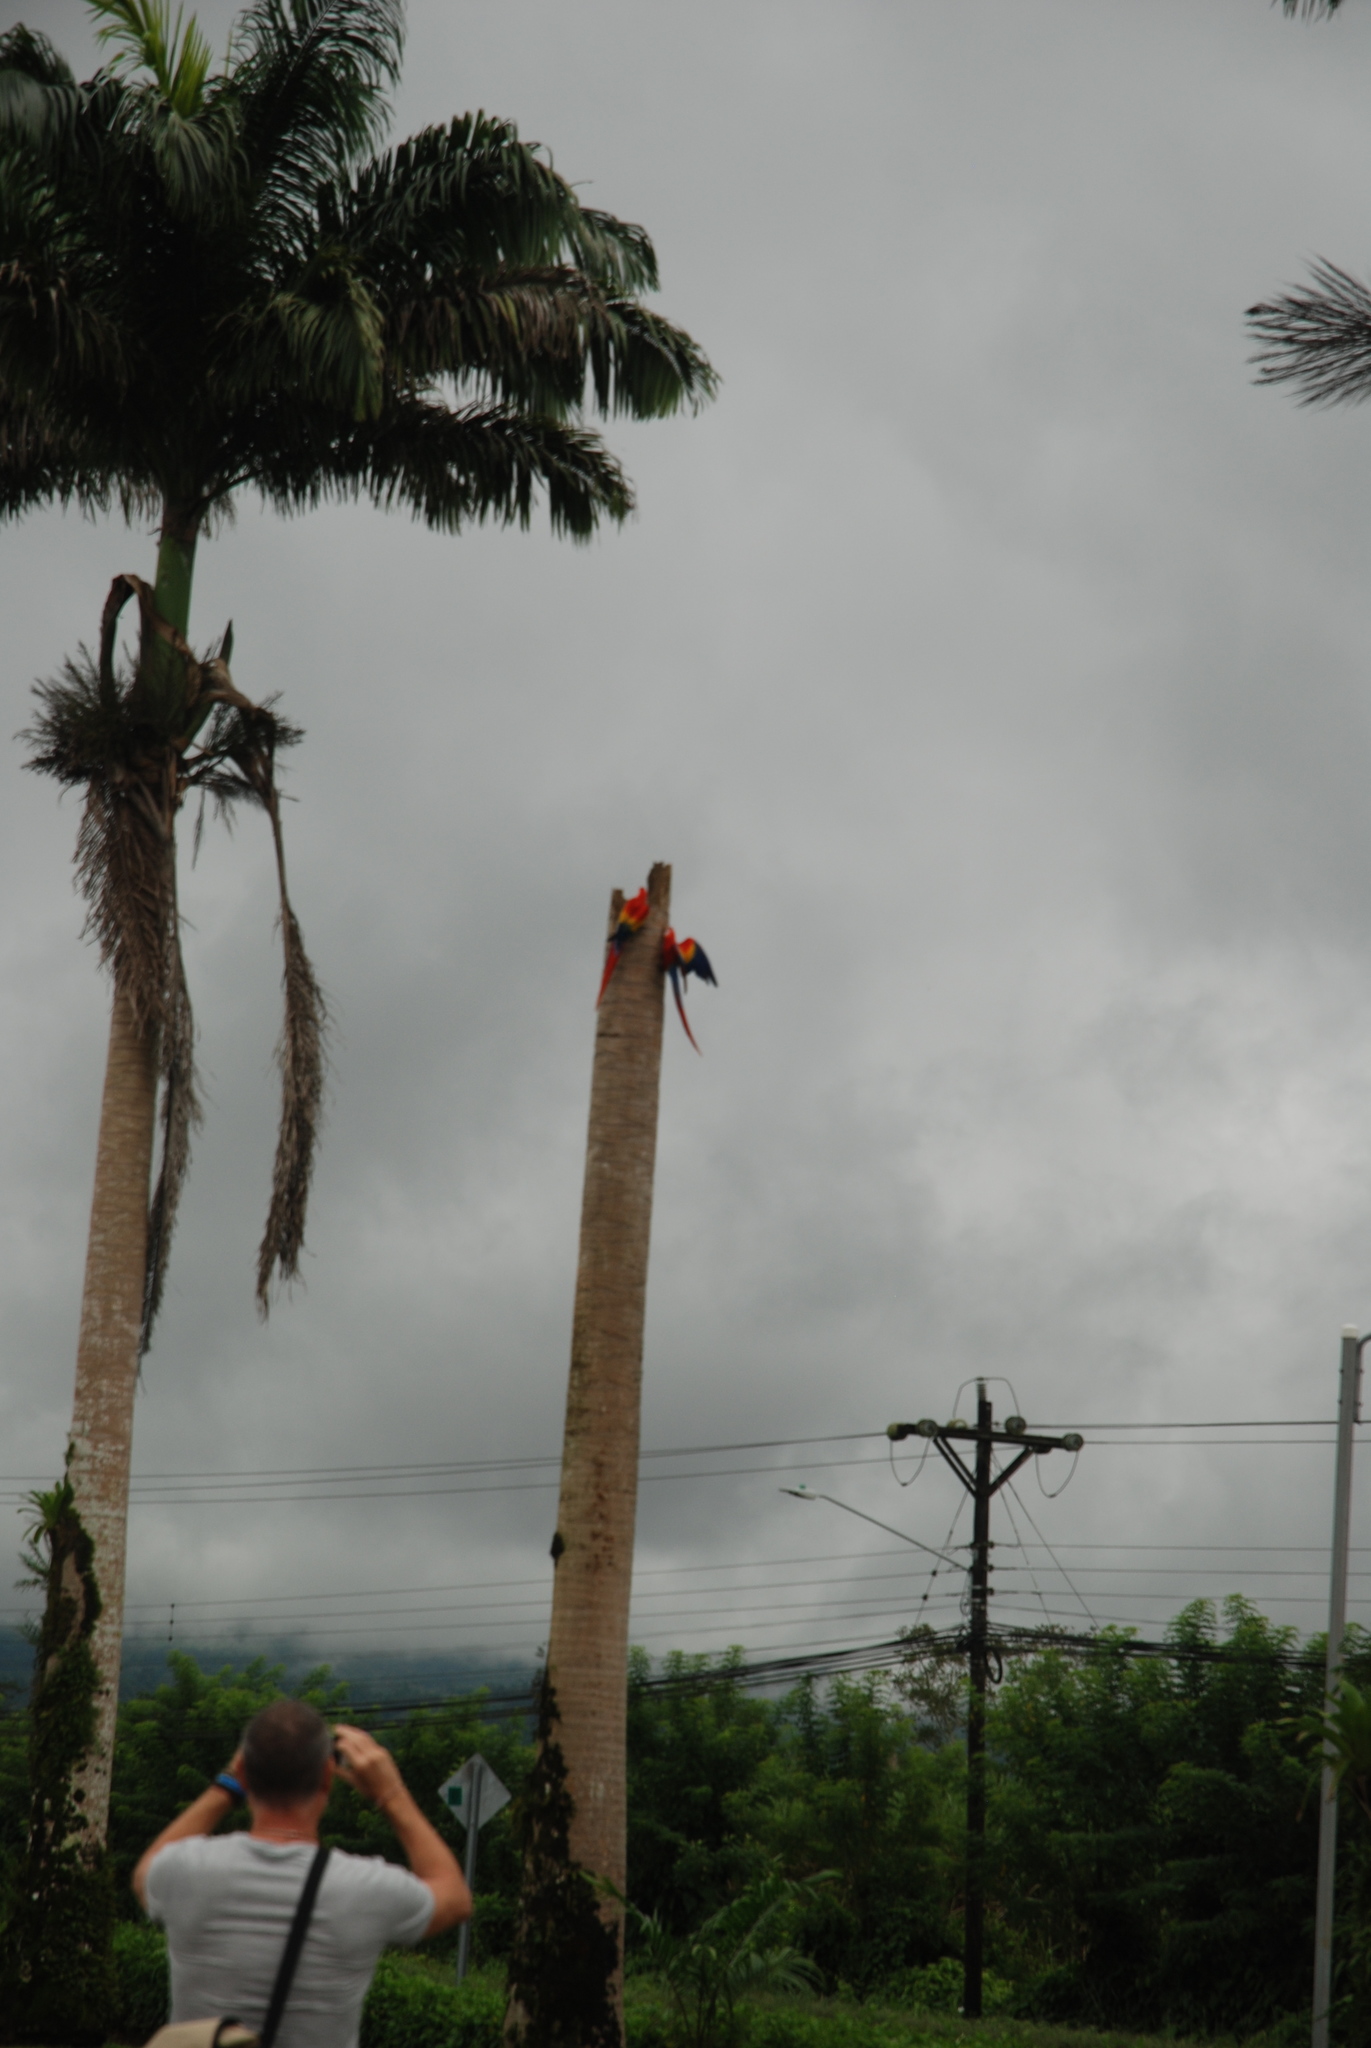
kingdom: Animalia
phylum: Chordata
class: Aves
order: Psittaciformes
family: Psittacidae
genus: Ara
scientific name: Ara macao
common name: Scarlet macaw
